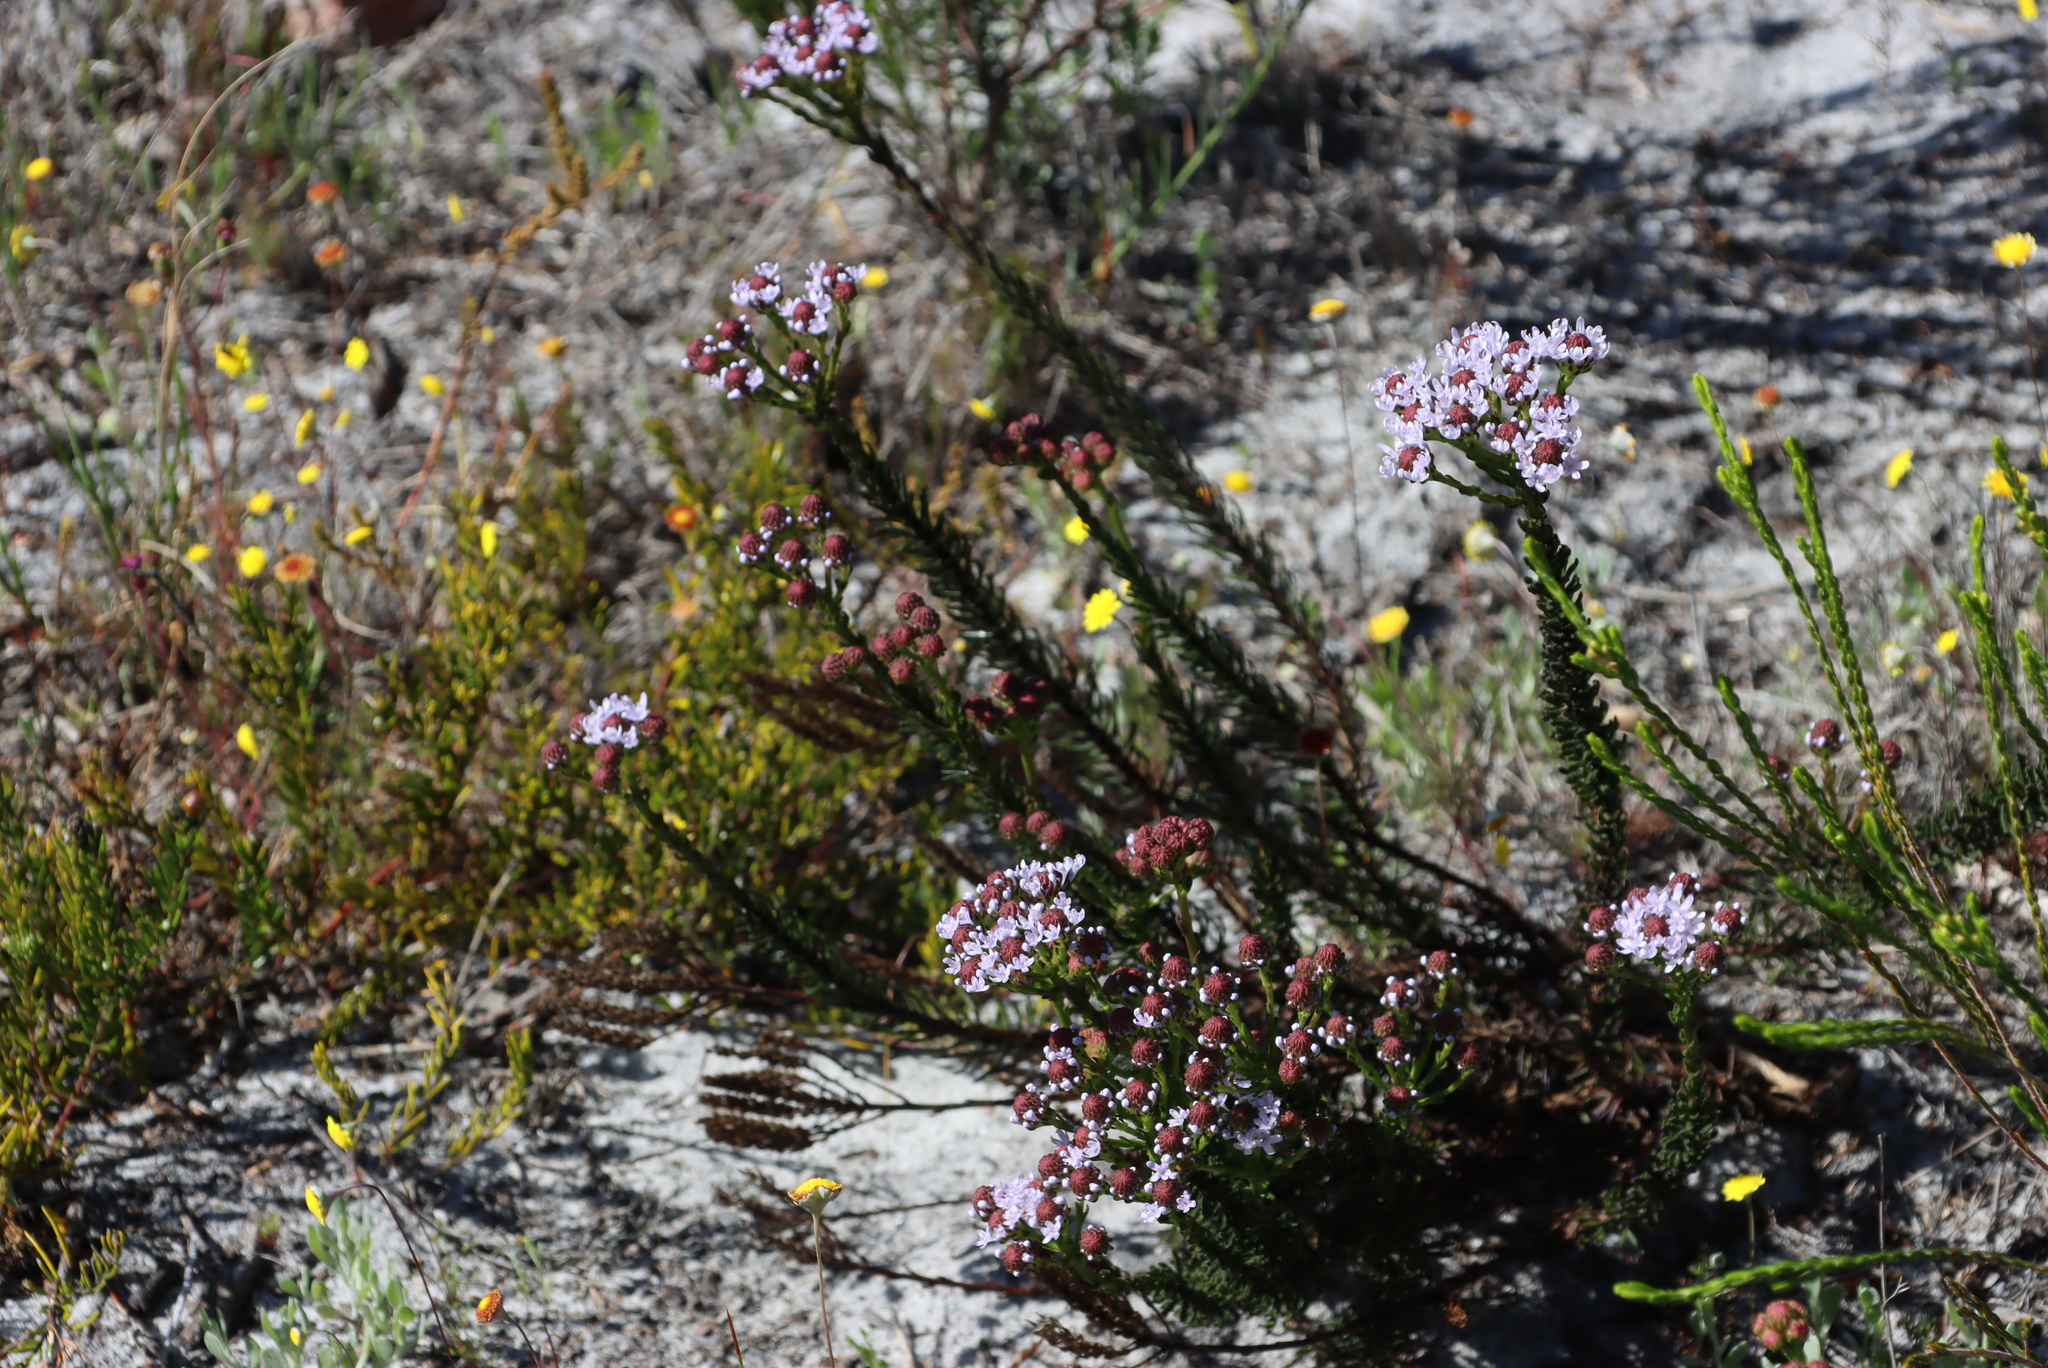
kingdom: Plantae
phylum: Tracheophyta
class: Magnoliopsida
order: Lamiales
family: Scrophulariaceae
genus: Pseudoselago
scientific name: Pseudoselago spuria
